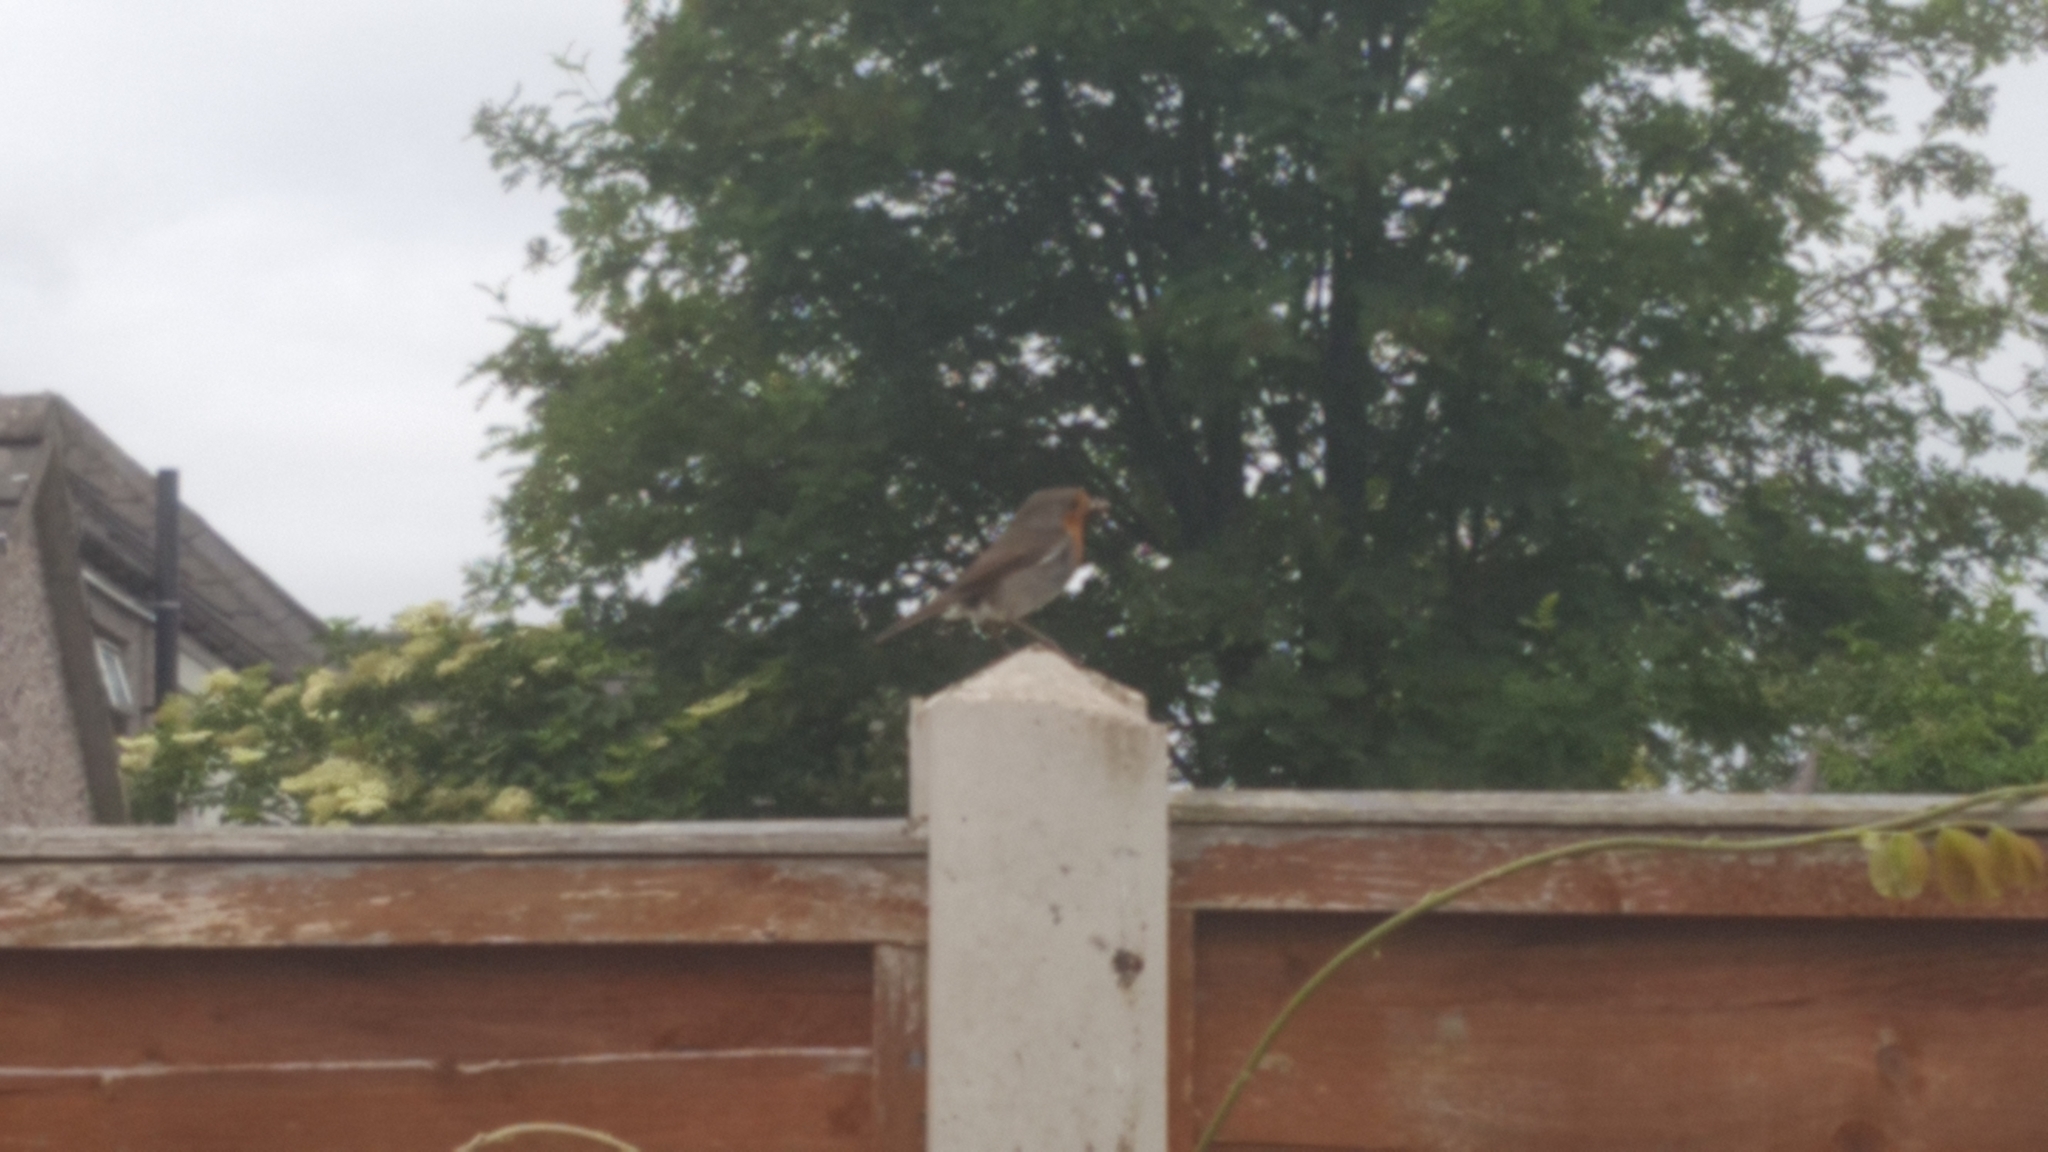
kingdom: Animalia
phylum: Chordata
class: Aves
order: Passeriformes
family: Muscicapidae
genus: Erithacus
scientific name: Erithacus rubecula
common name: European robin
